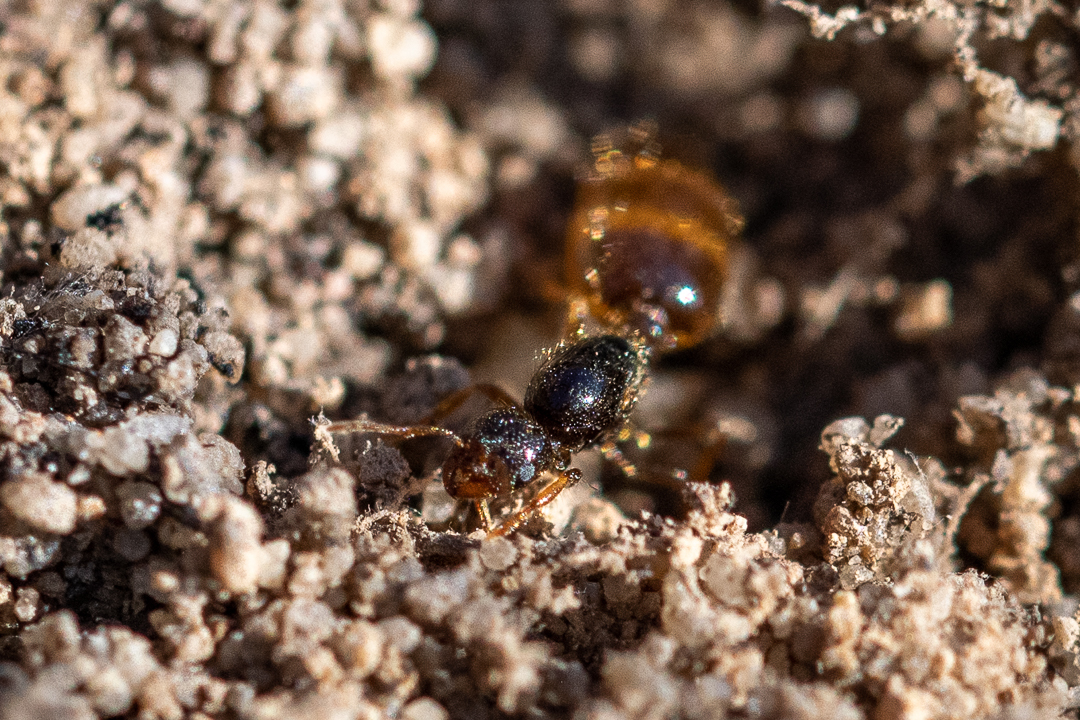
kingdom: Animalia
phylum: Arthropoda
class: Insecta
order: Hymenoptera
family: Formicidae
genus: Solenopsis
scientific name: Solenopsis punctaticeps
